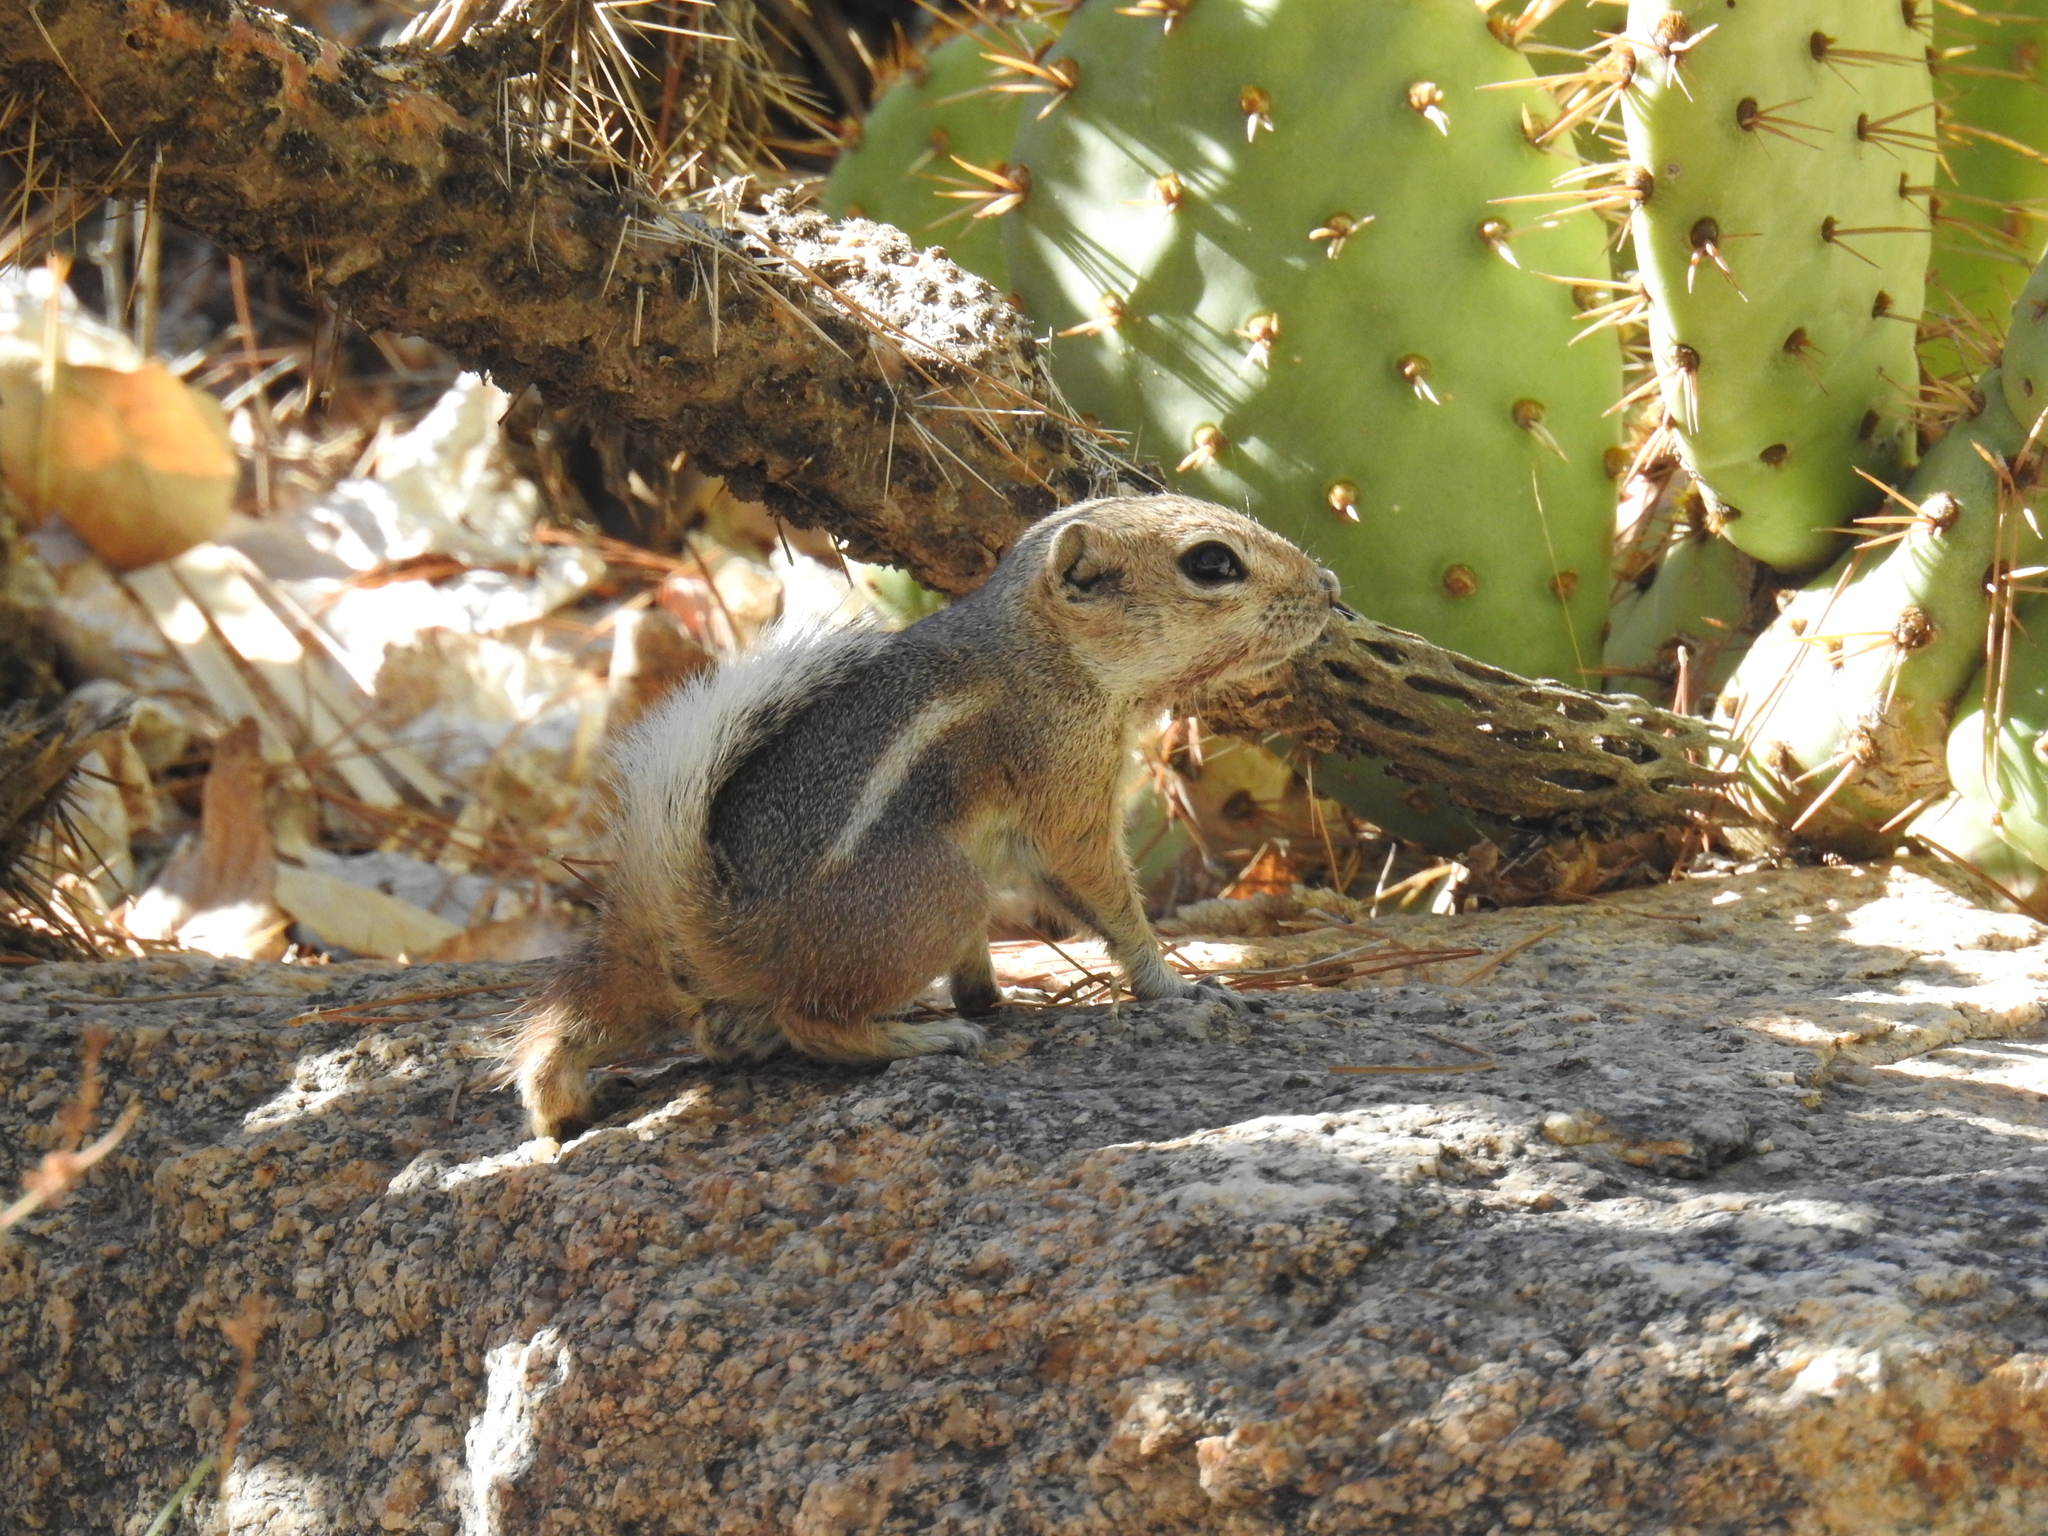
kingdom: Animalia
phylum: Chordata
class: Mammalia
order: Rodentia
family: Sciuridae
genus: Ammospermophilus
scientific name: Ammospermophilus leucurus
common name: White-tailed antelope squirrel
